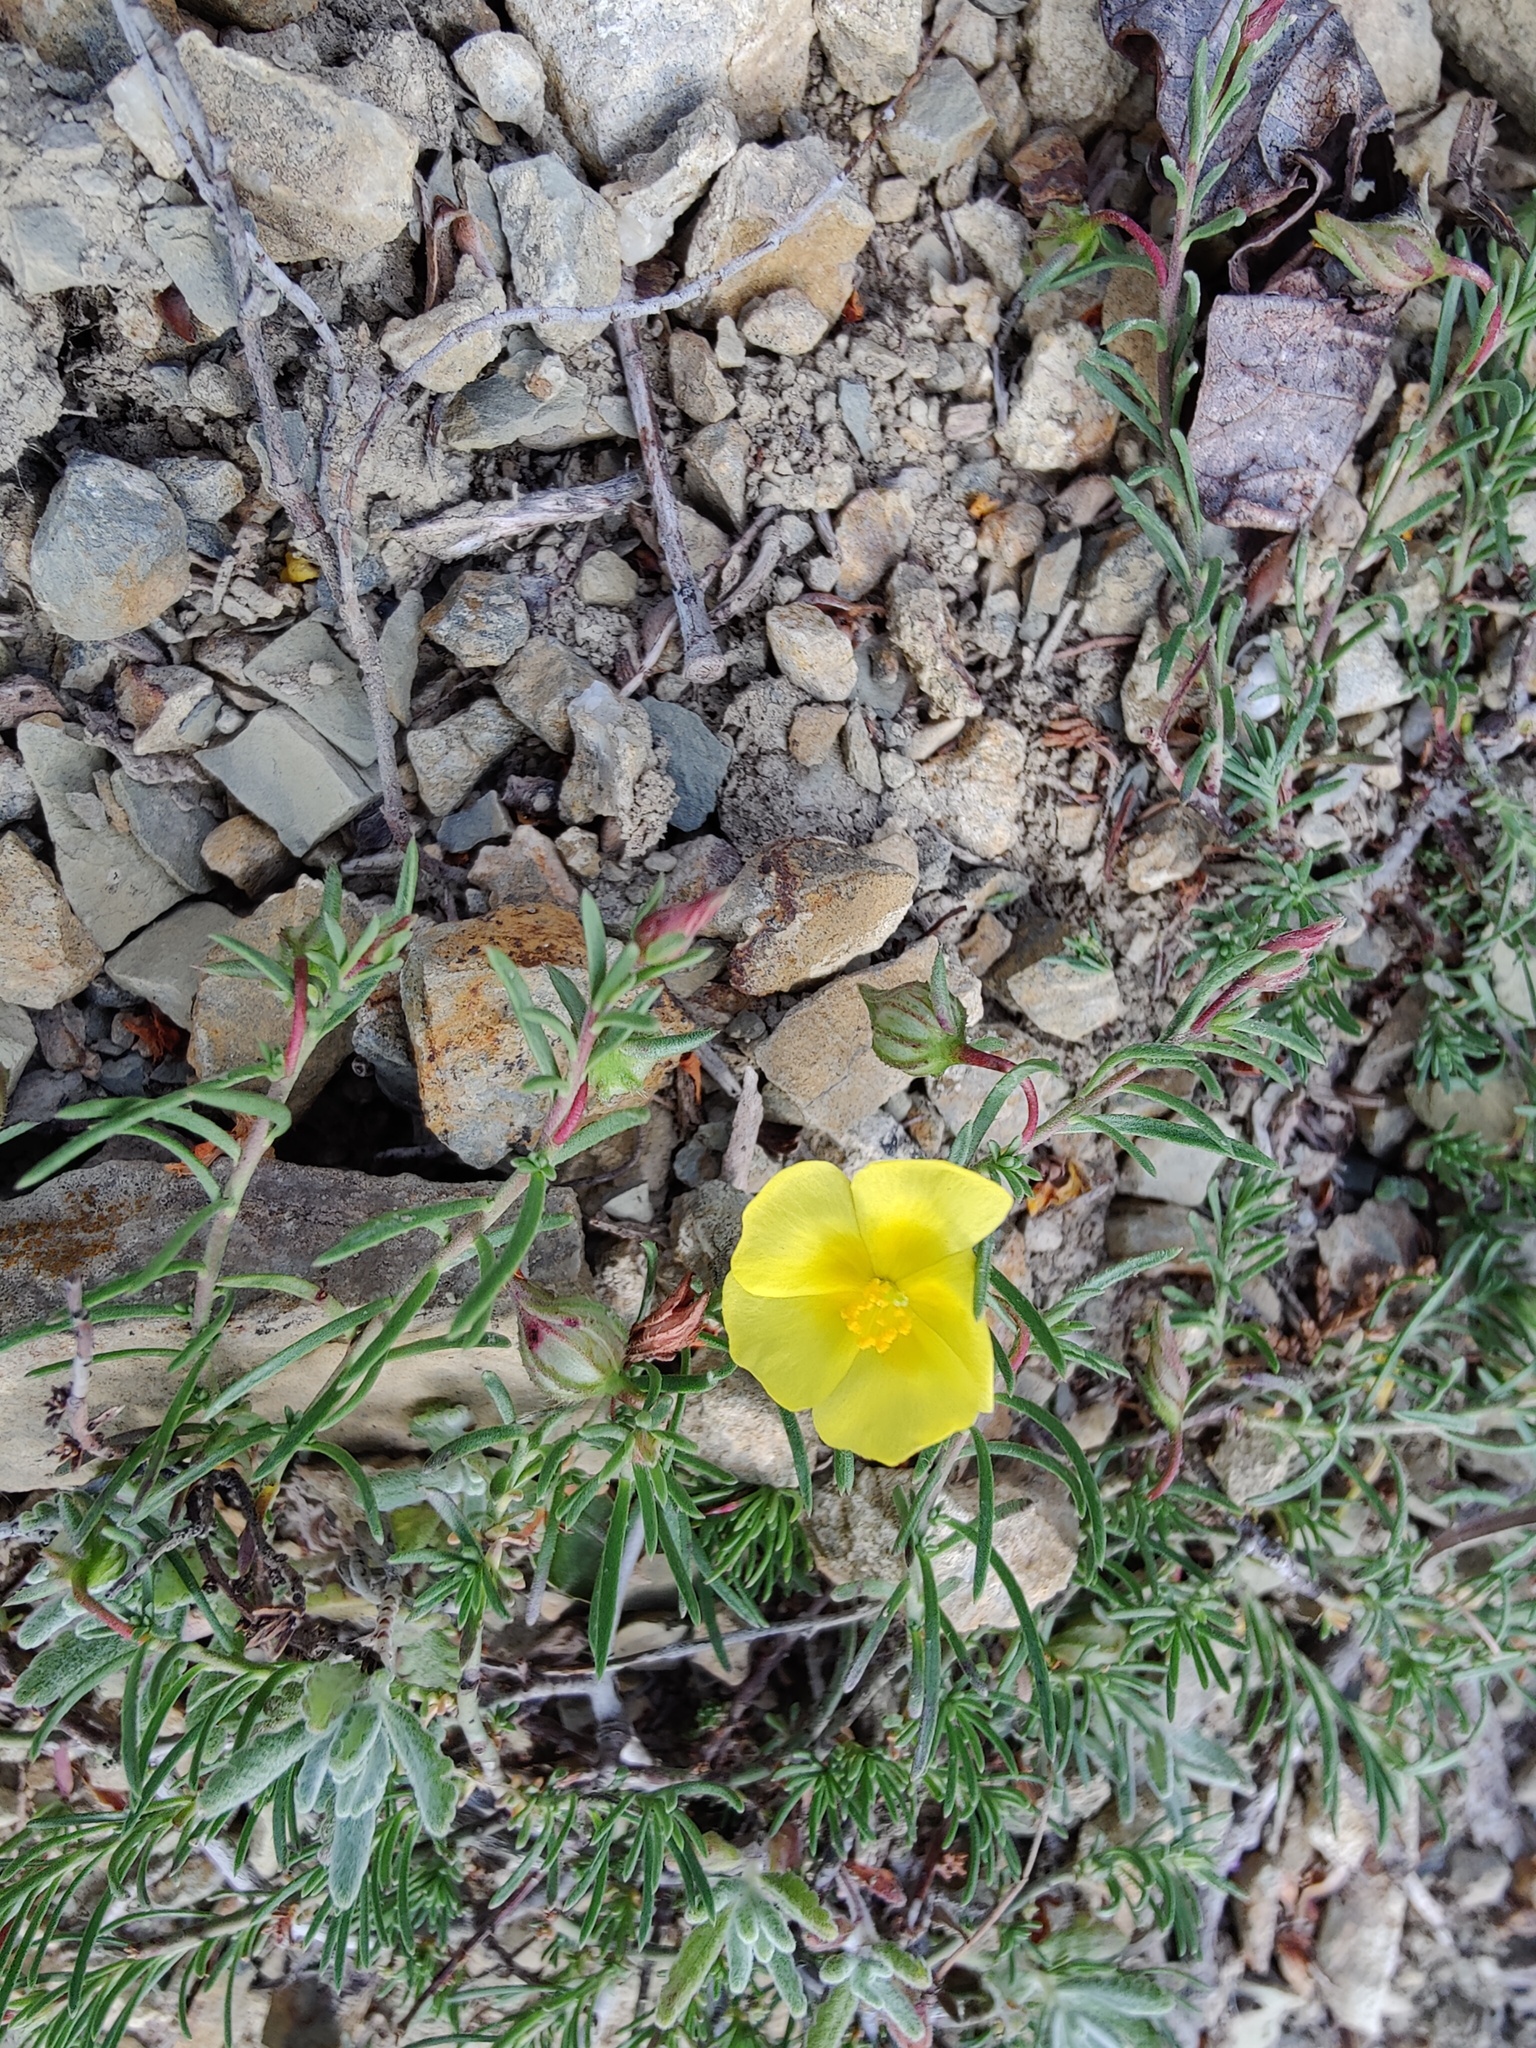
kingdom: Plantae
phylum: Tracheophyta
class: Magnoliopsida
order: Malvales
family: Cistaceae
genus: Fumana
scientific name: Fumana procumbens
